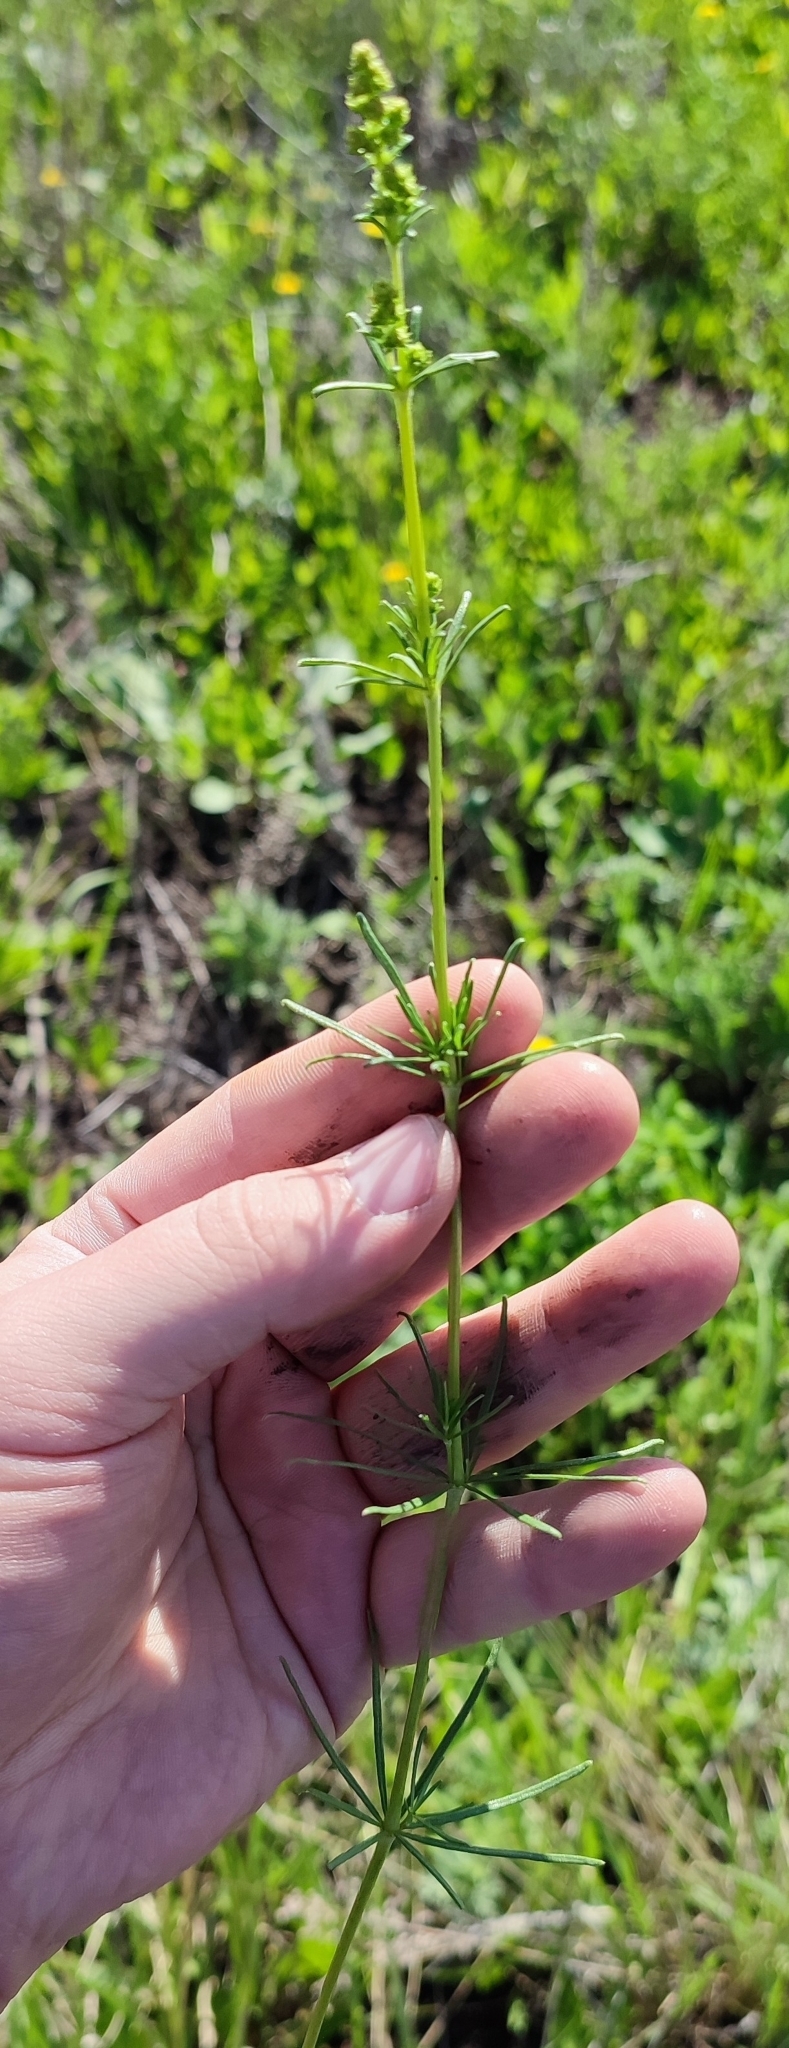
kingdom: Plantae
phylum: Tracheophyta
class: Magnoliopsida
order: Gentianales
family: Rubiaceae
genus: Galium
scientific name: Galium verum
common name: Lady's bedstraw
